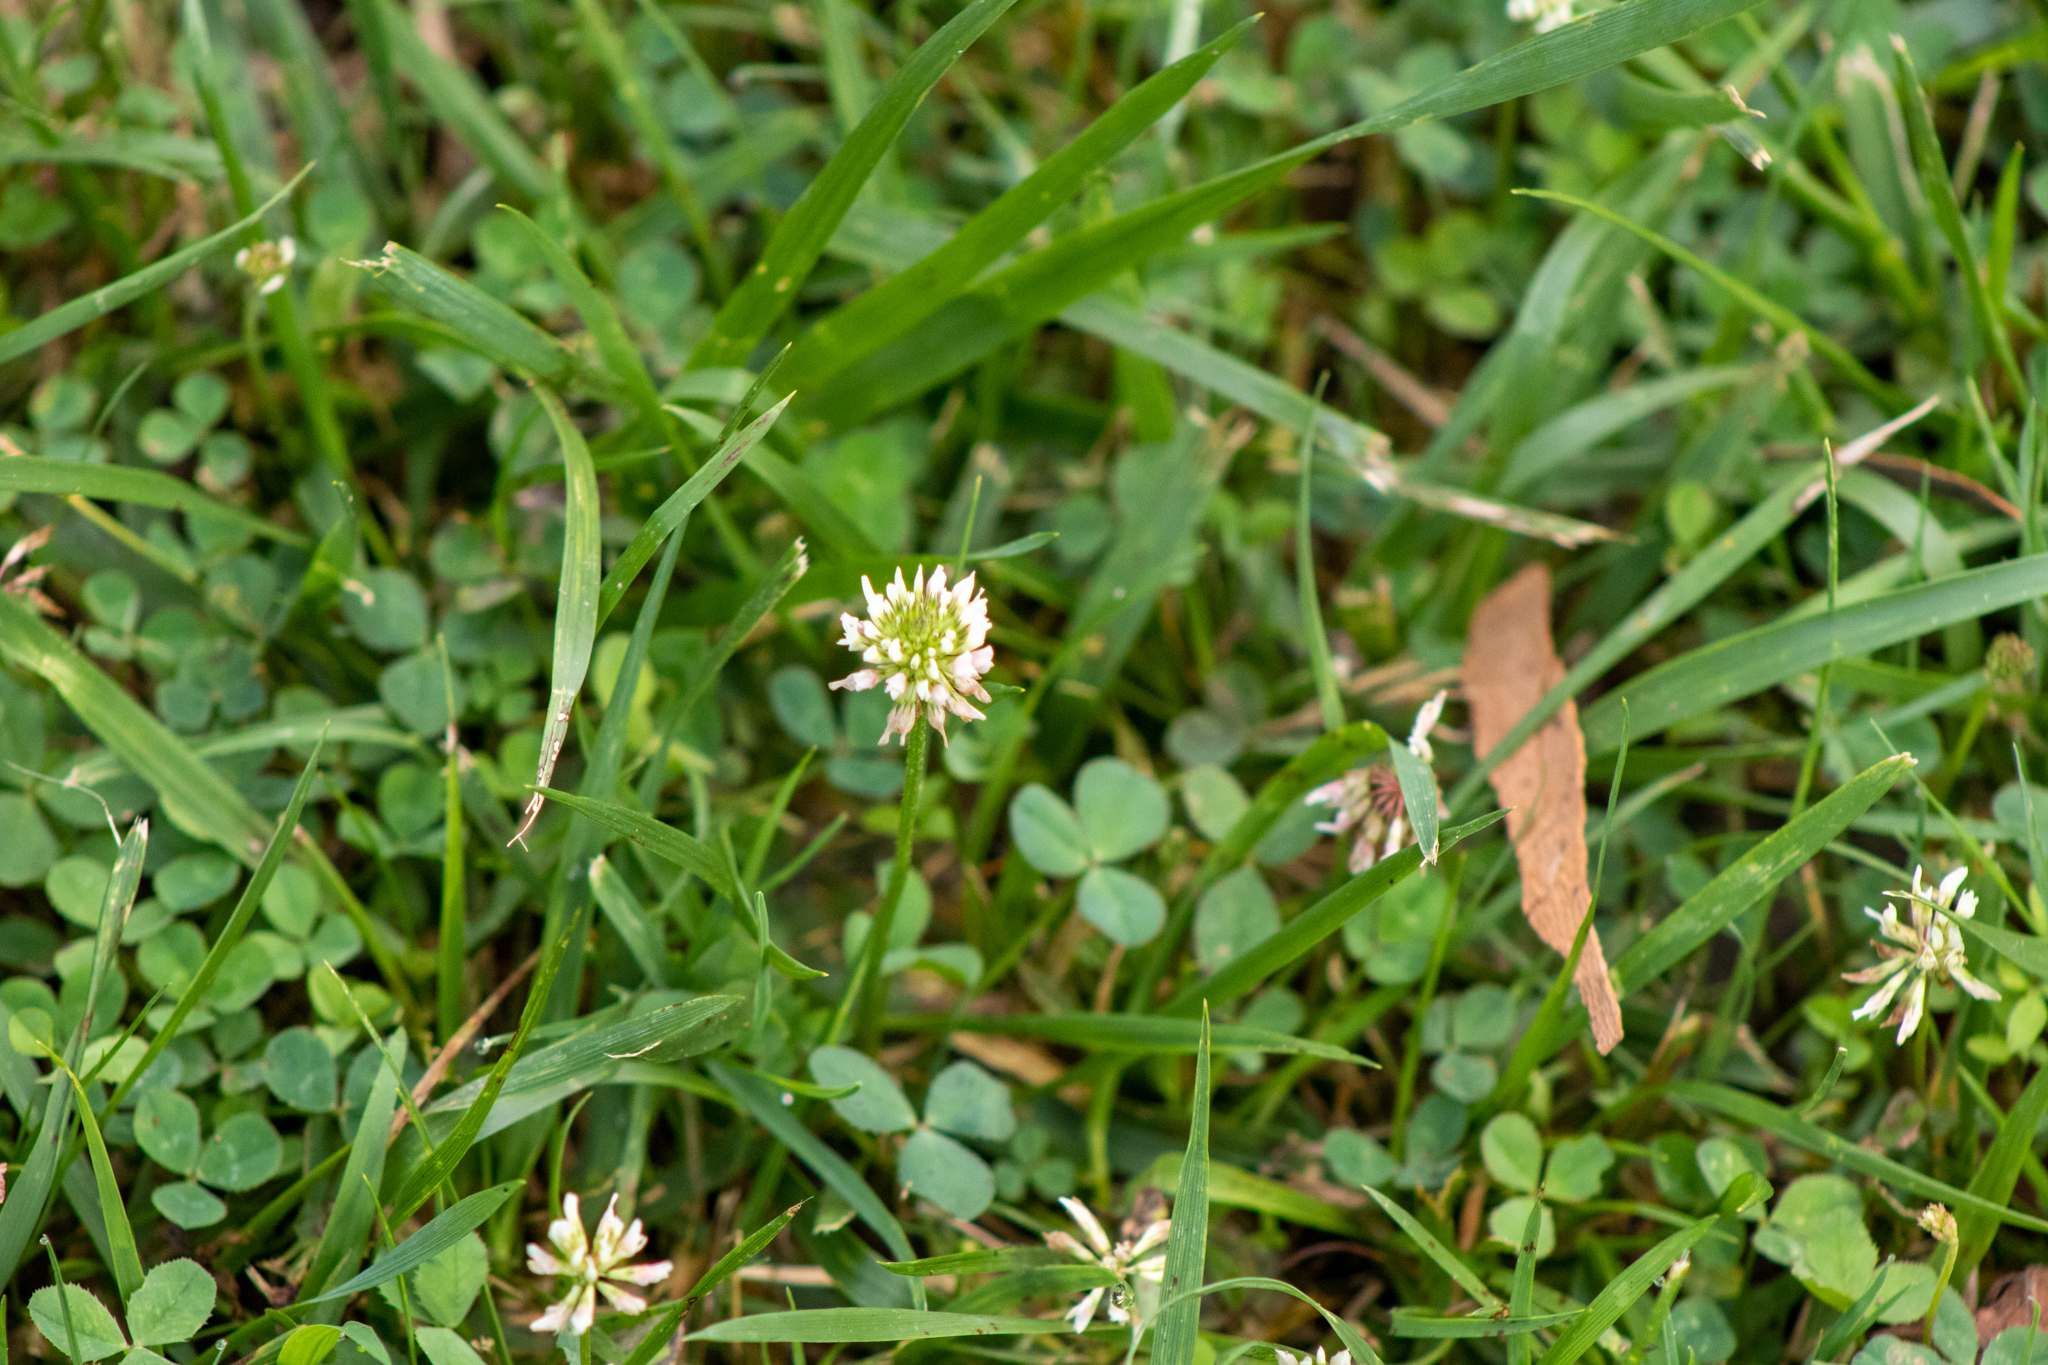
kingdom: Plantae
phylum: Tracheophyta
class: Magnoliopsida
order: Fabales
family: Fabaceae
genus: Trifolium
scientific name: Trifolium repens
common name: White clover
